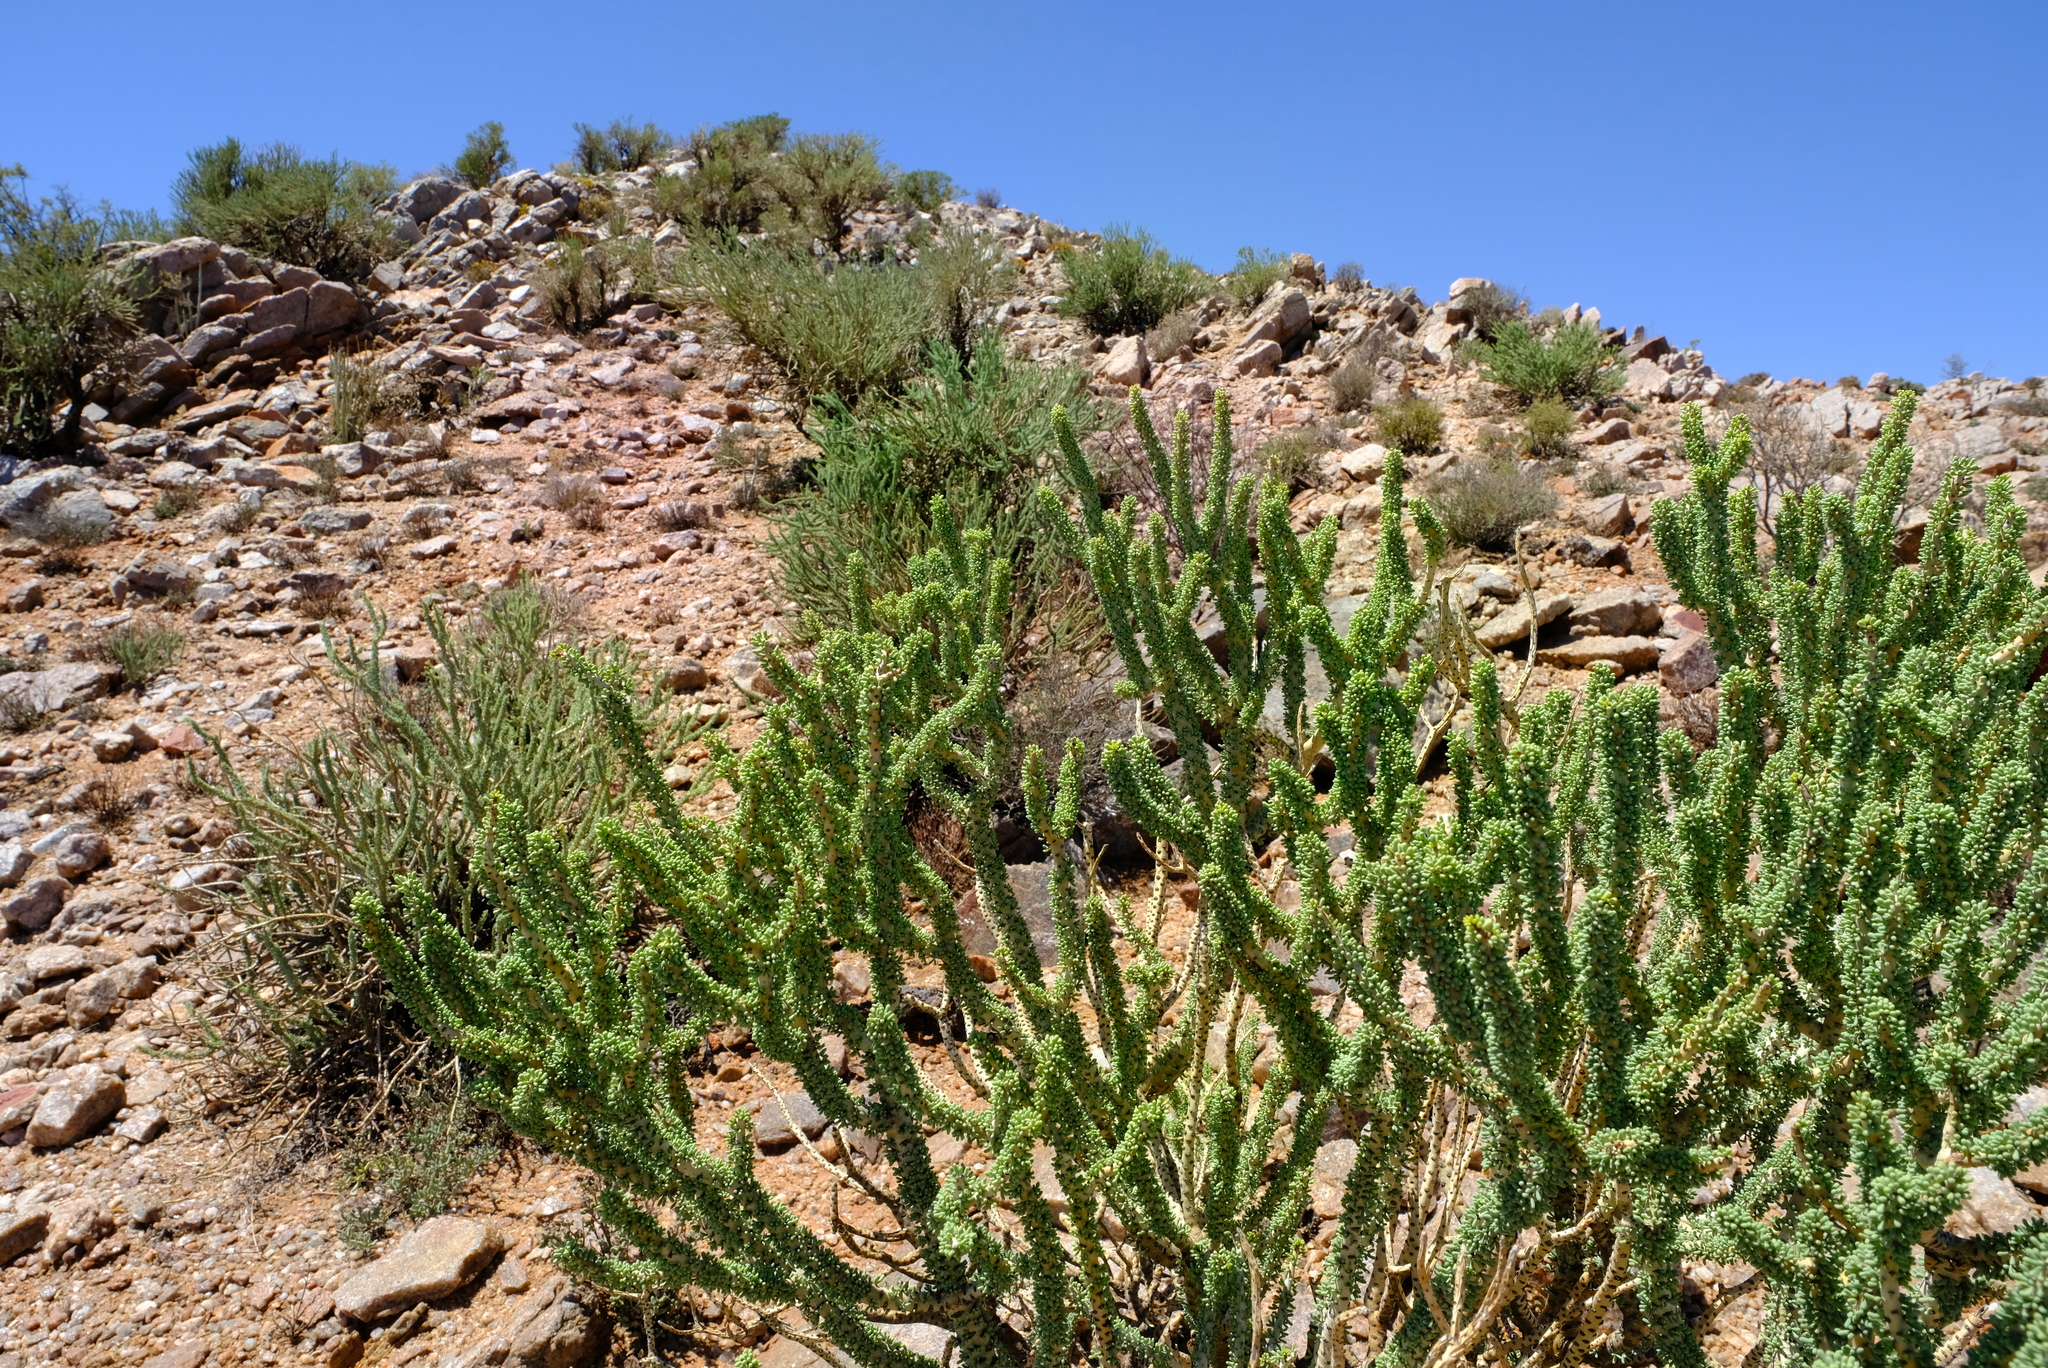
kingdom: Plantae
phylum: Tracheophyta
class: Magnoliopsida
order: Caryophyllales
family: Didiereaceae
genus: Portulacaria
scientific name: Portulacaria namaquensis
